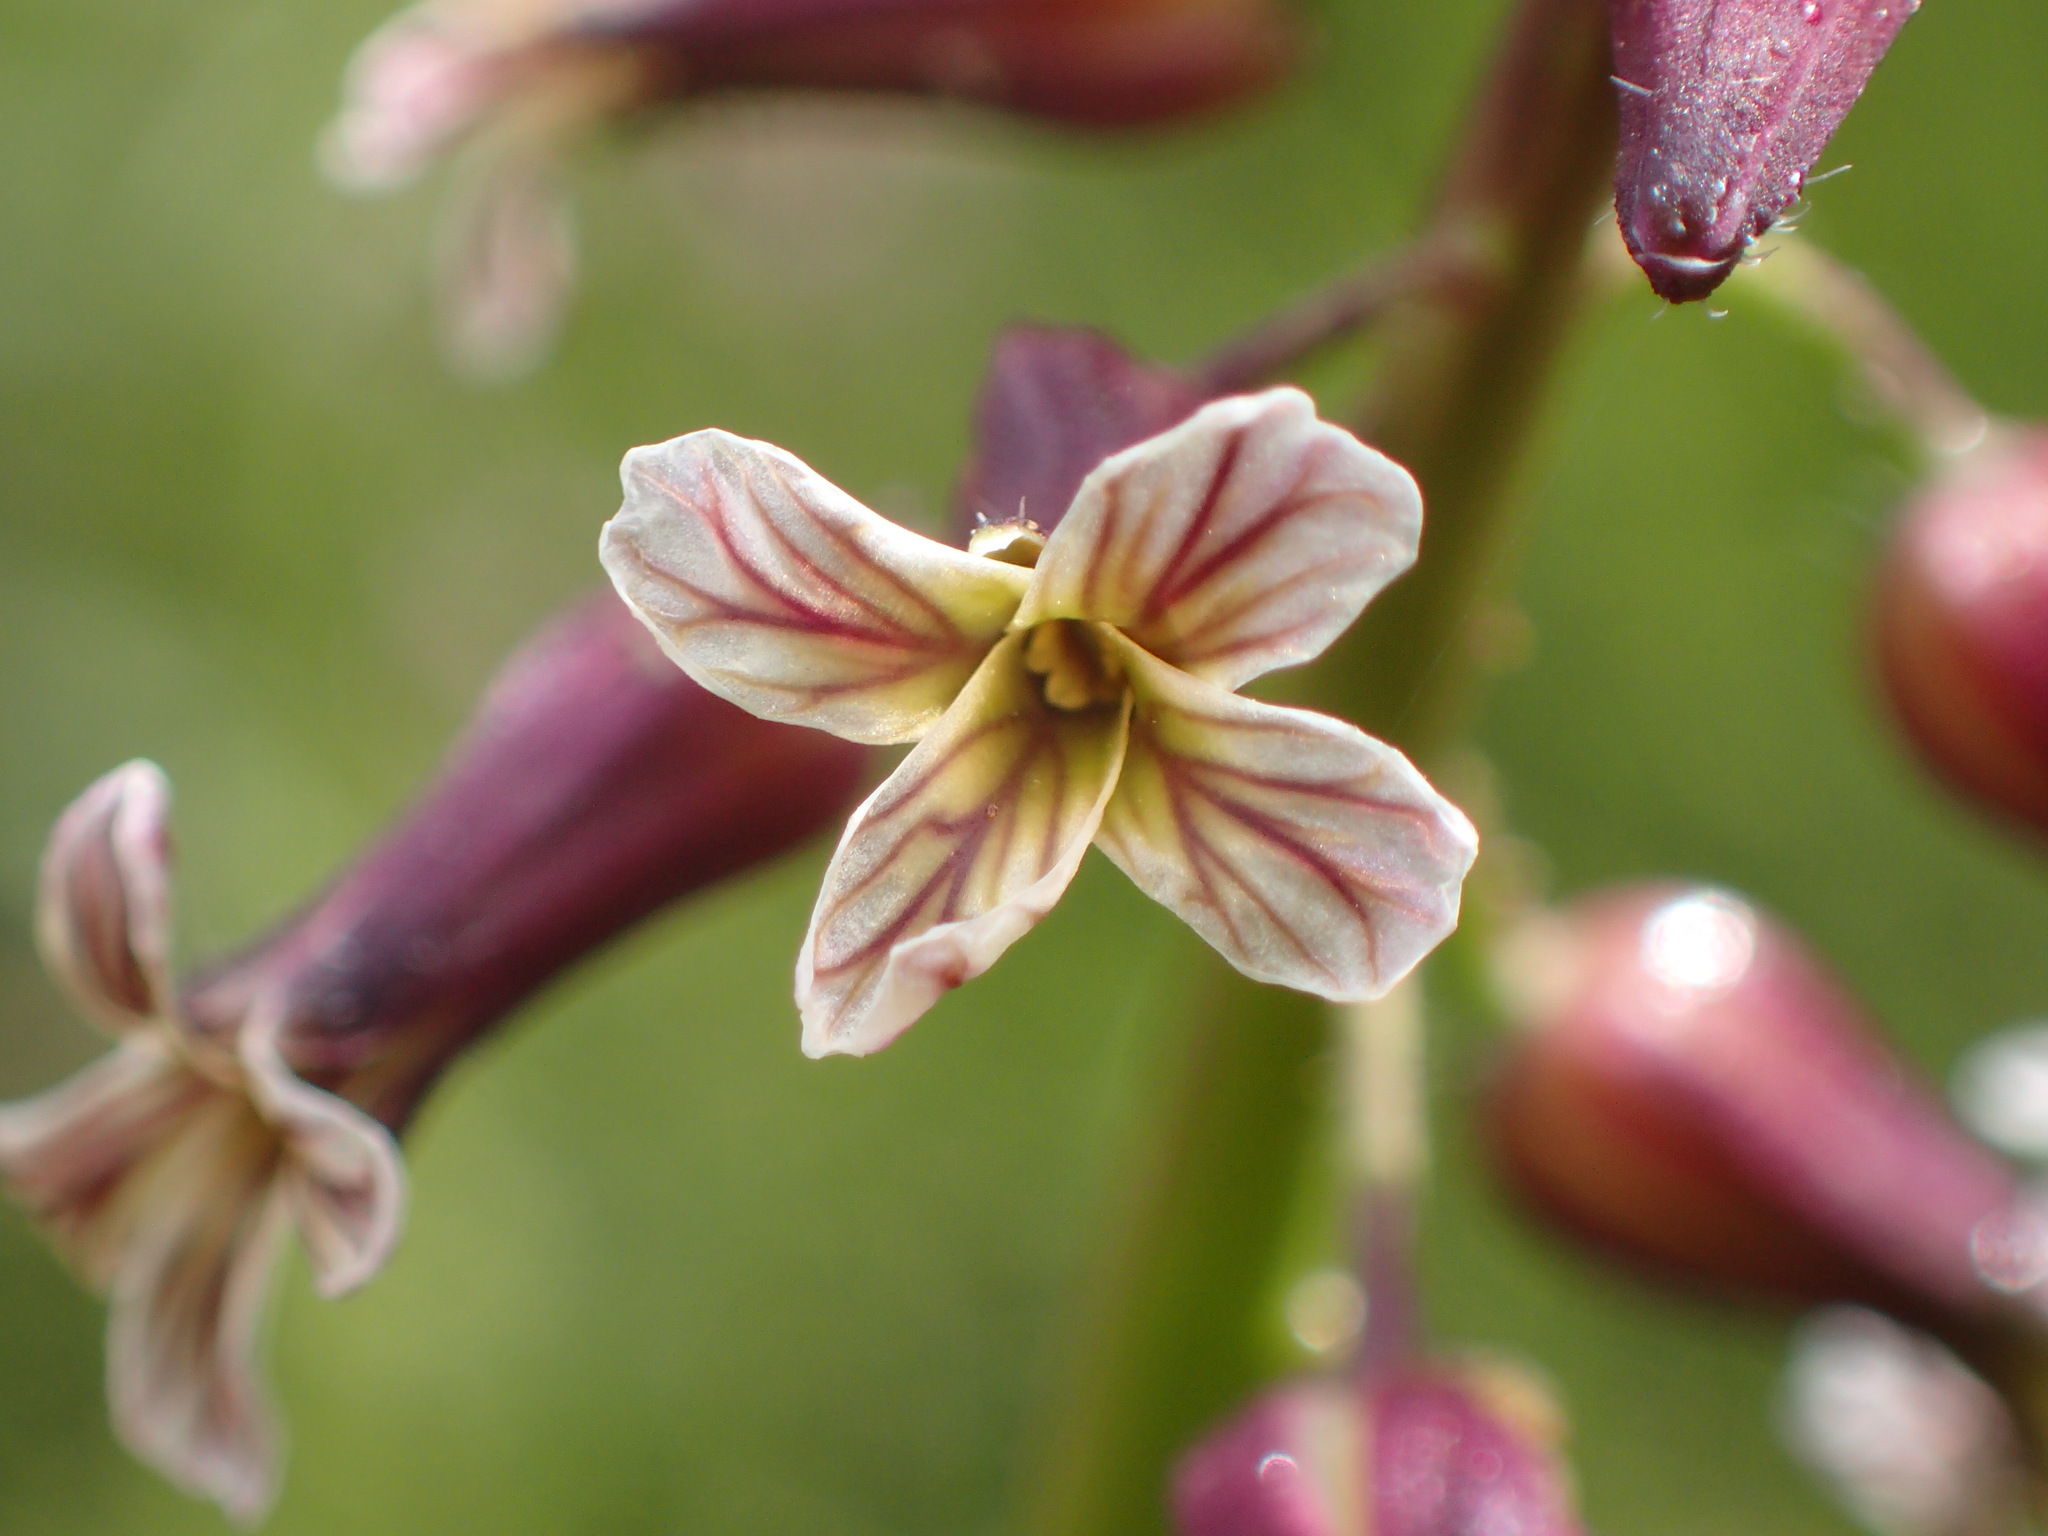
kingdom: Plantae
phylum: Tracheophyta
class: Magnoliopsida
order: Brassicales
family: Brassicaceae
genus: Streptanthus
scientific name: Streptanthus heterophyllus
